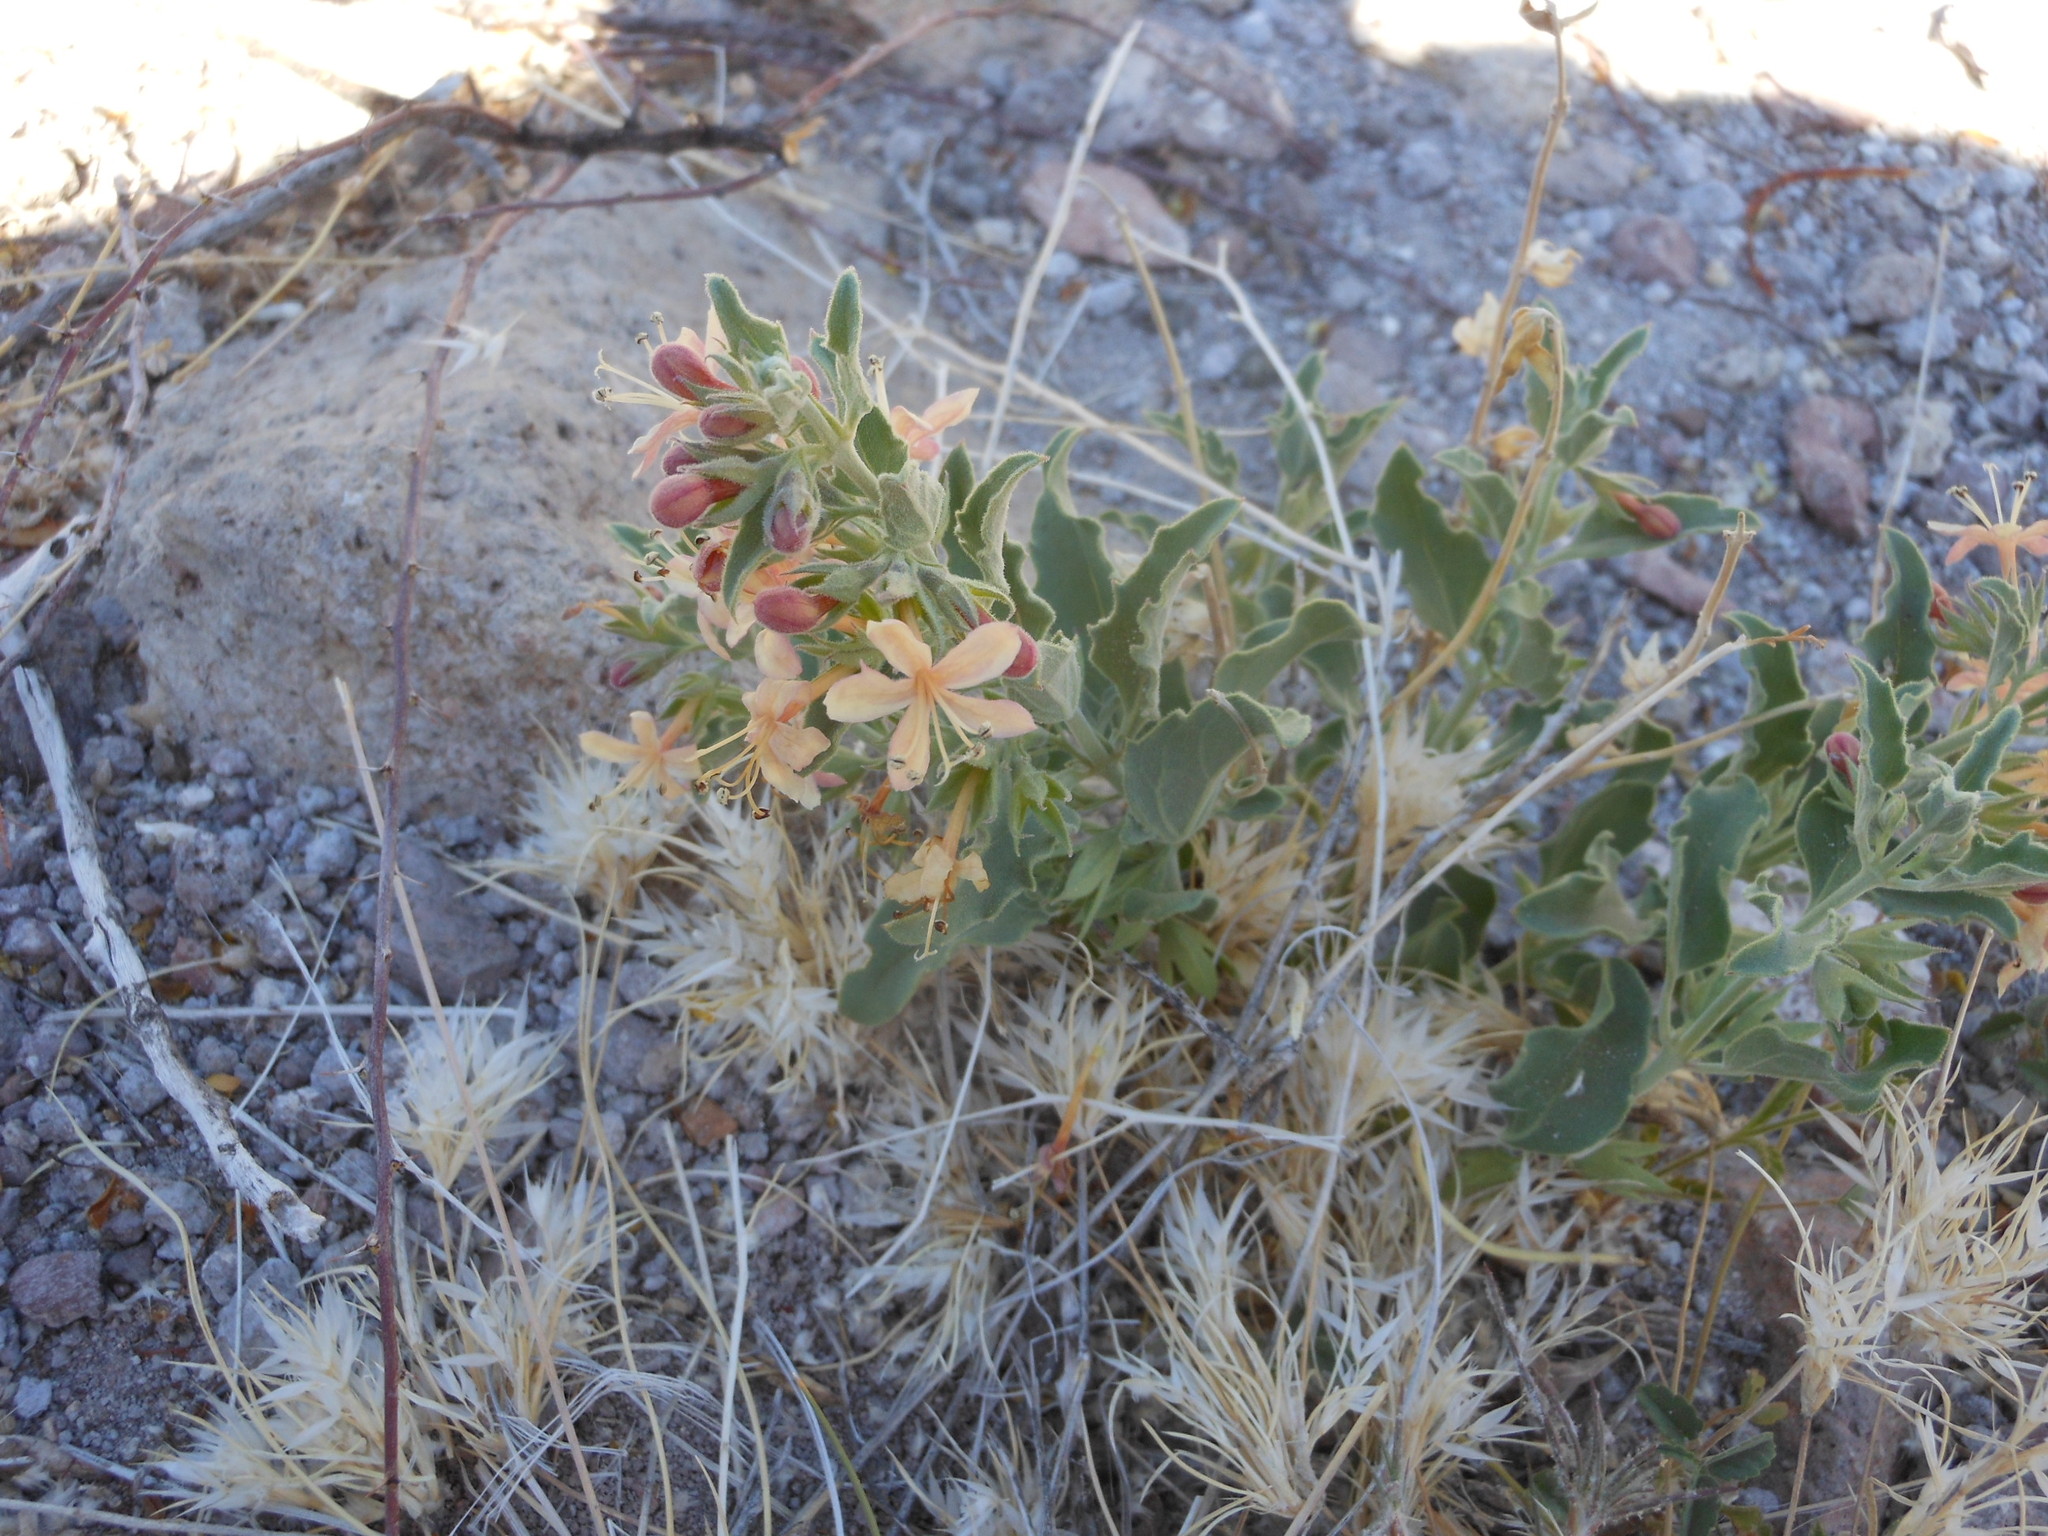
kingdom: Plantae
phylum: Tracheophyta
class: Magnoliopsida
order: Lamiales
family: Lamiaceae
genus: Tetraclea
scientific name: Tetraclea coulteri
